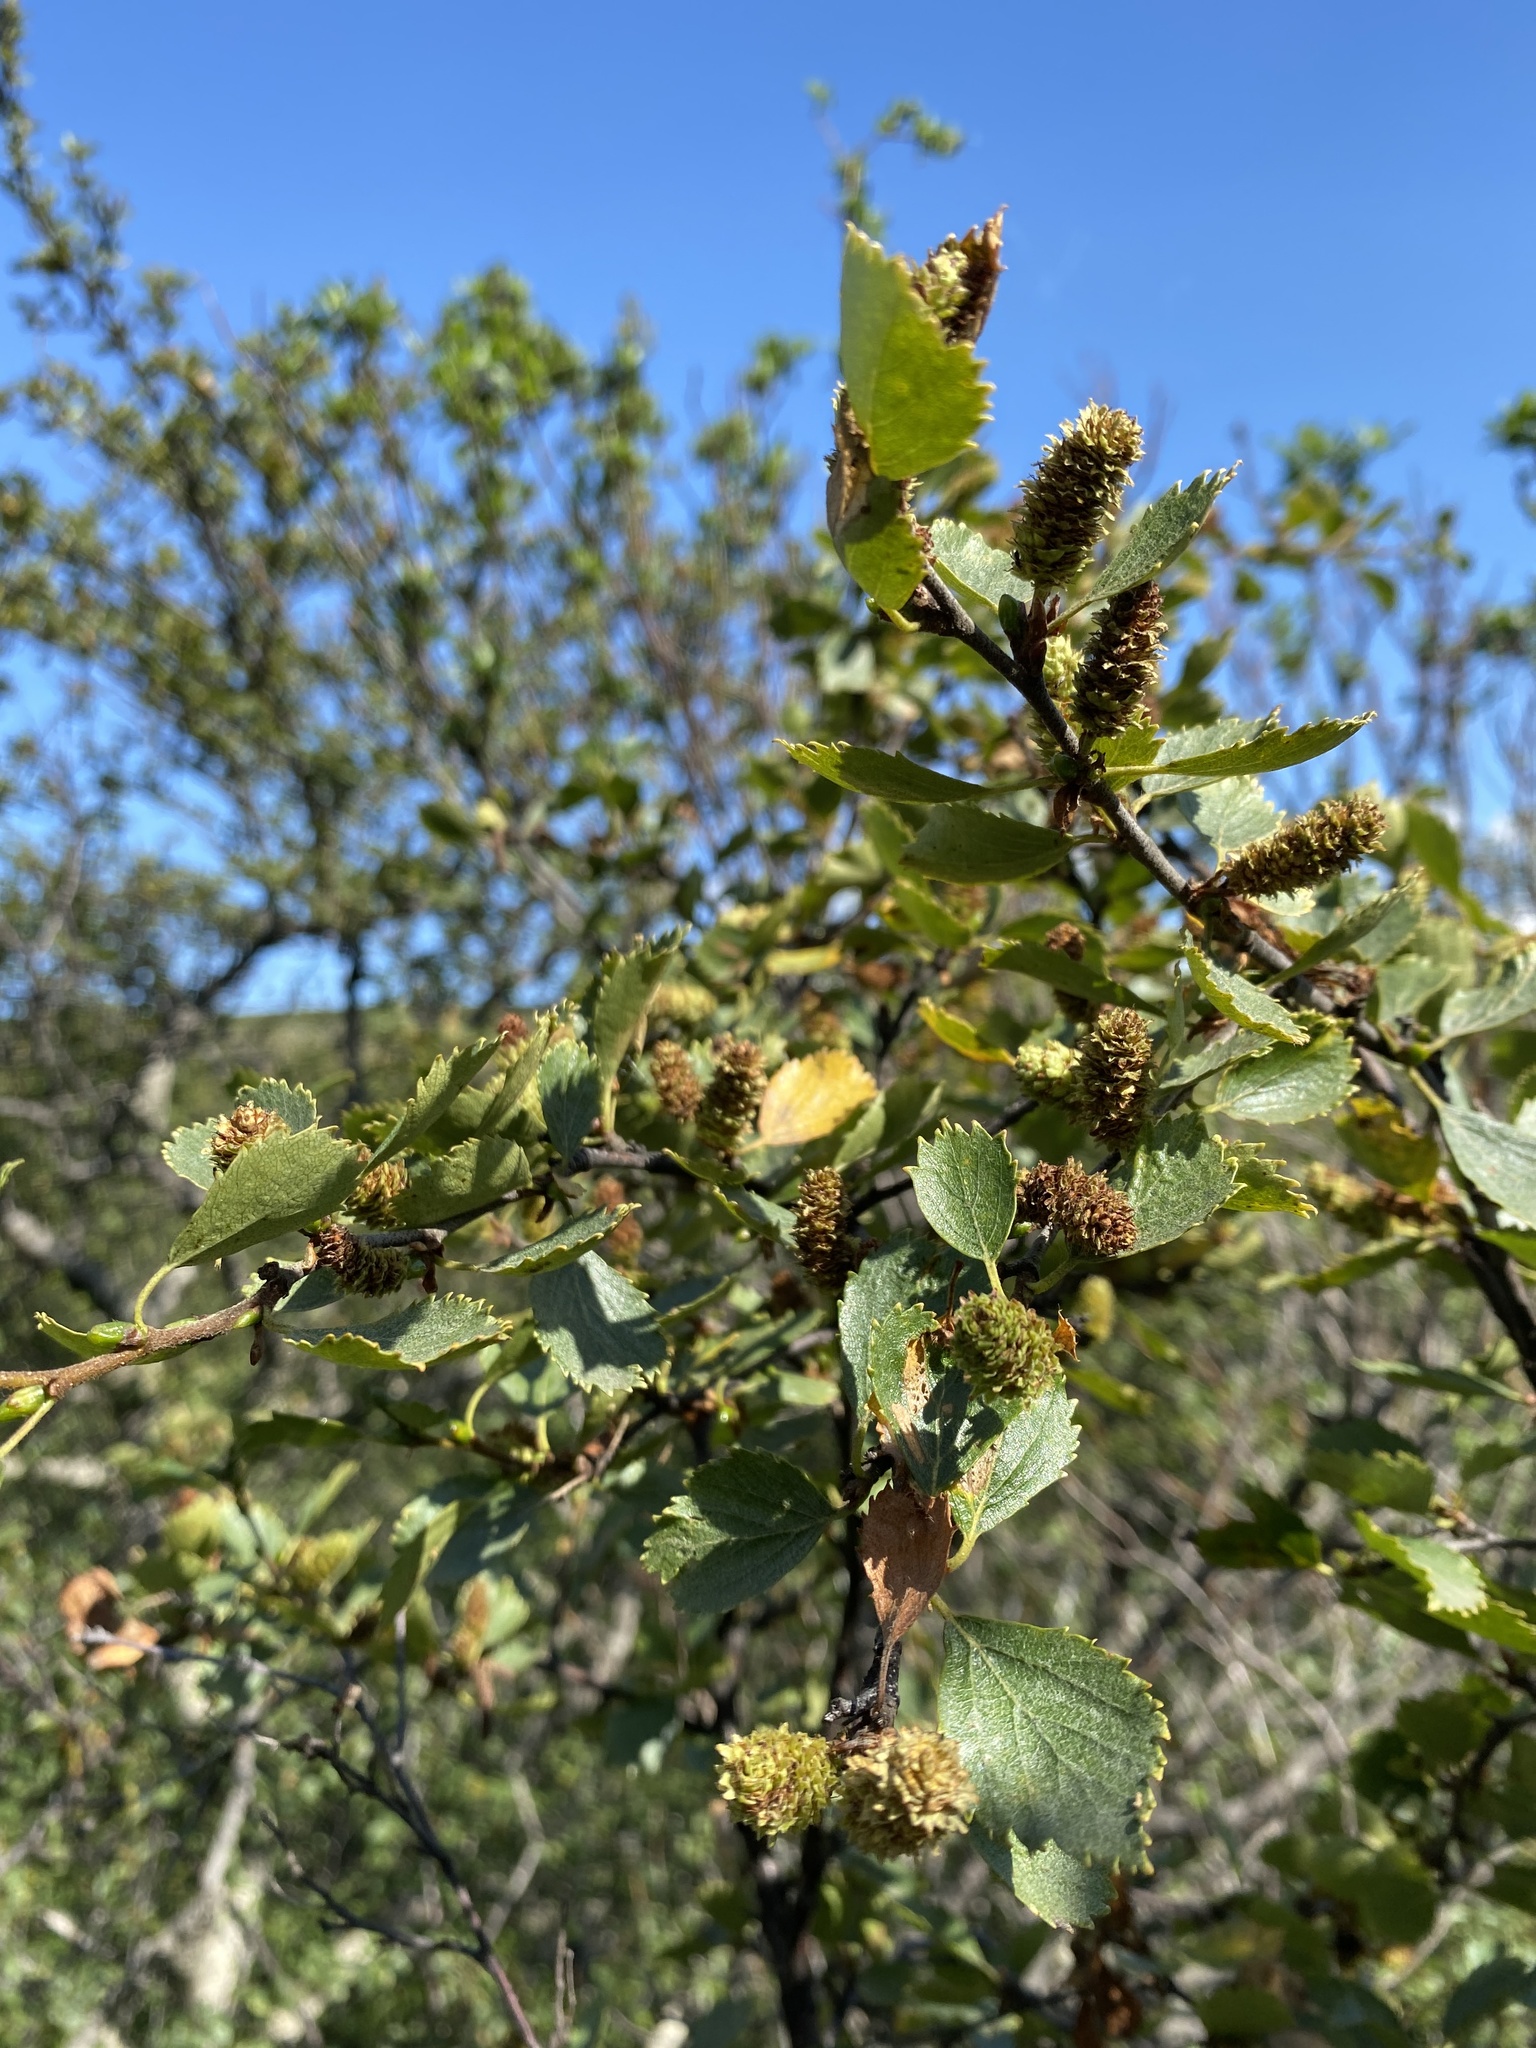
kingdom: Plantae
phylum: Tracheophyta
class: Magnoliopsida
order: Fagales
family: Betulaceae
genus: Betula
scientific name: Betula pubescens
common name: Downy birch
